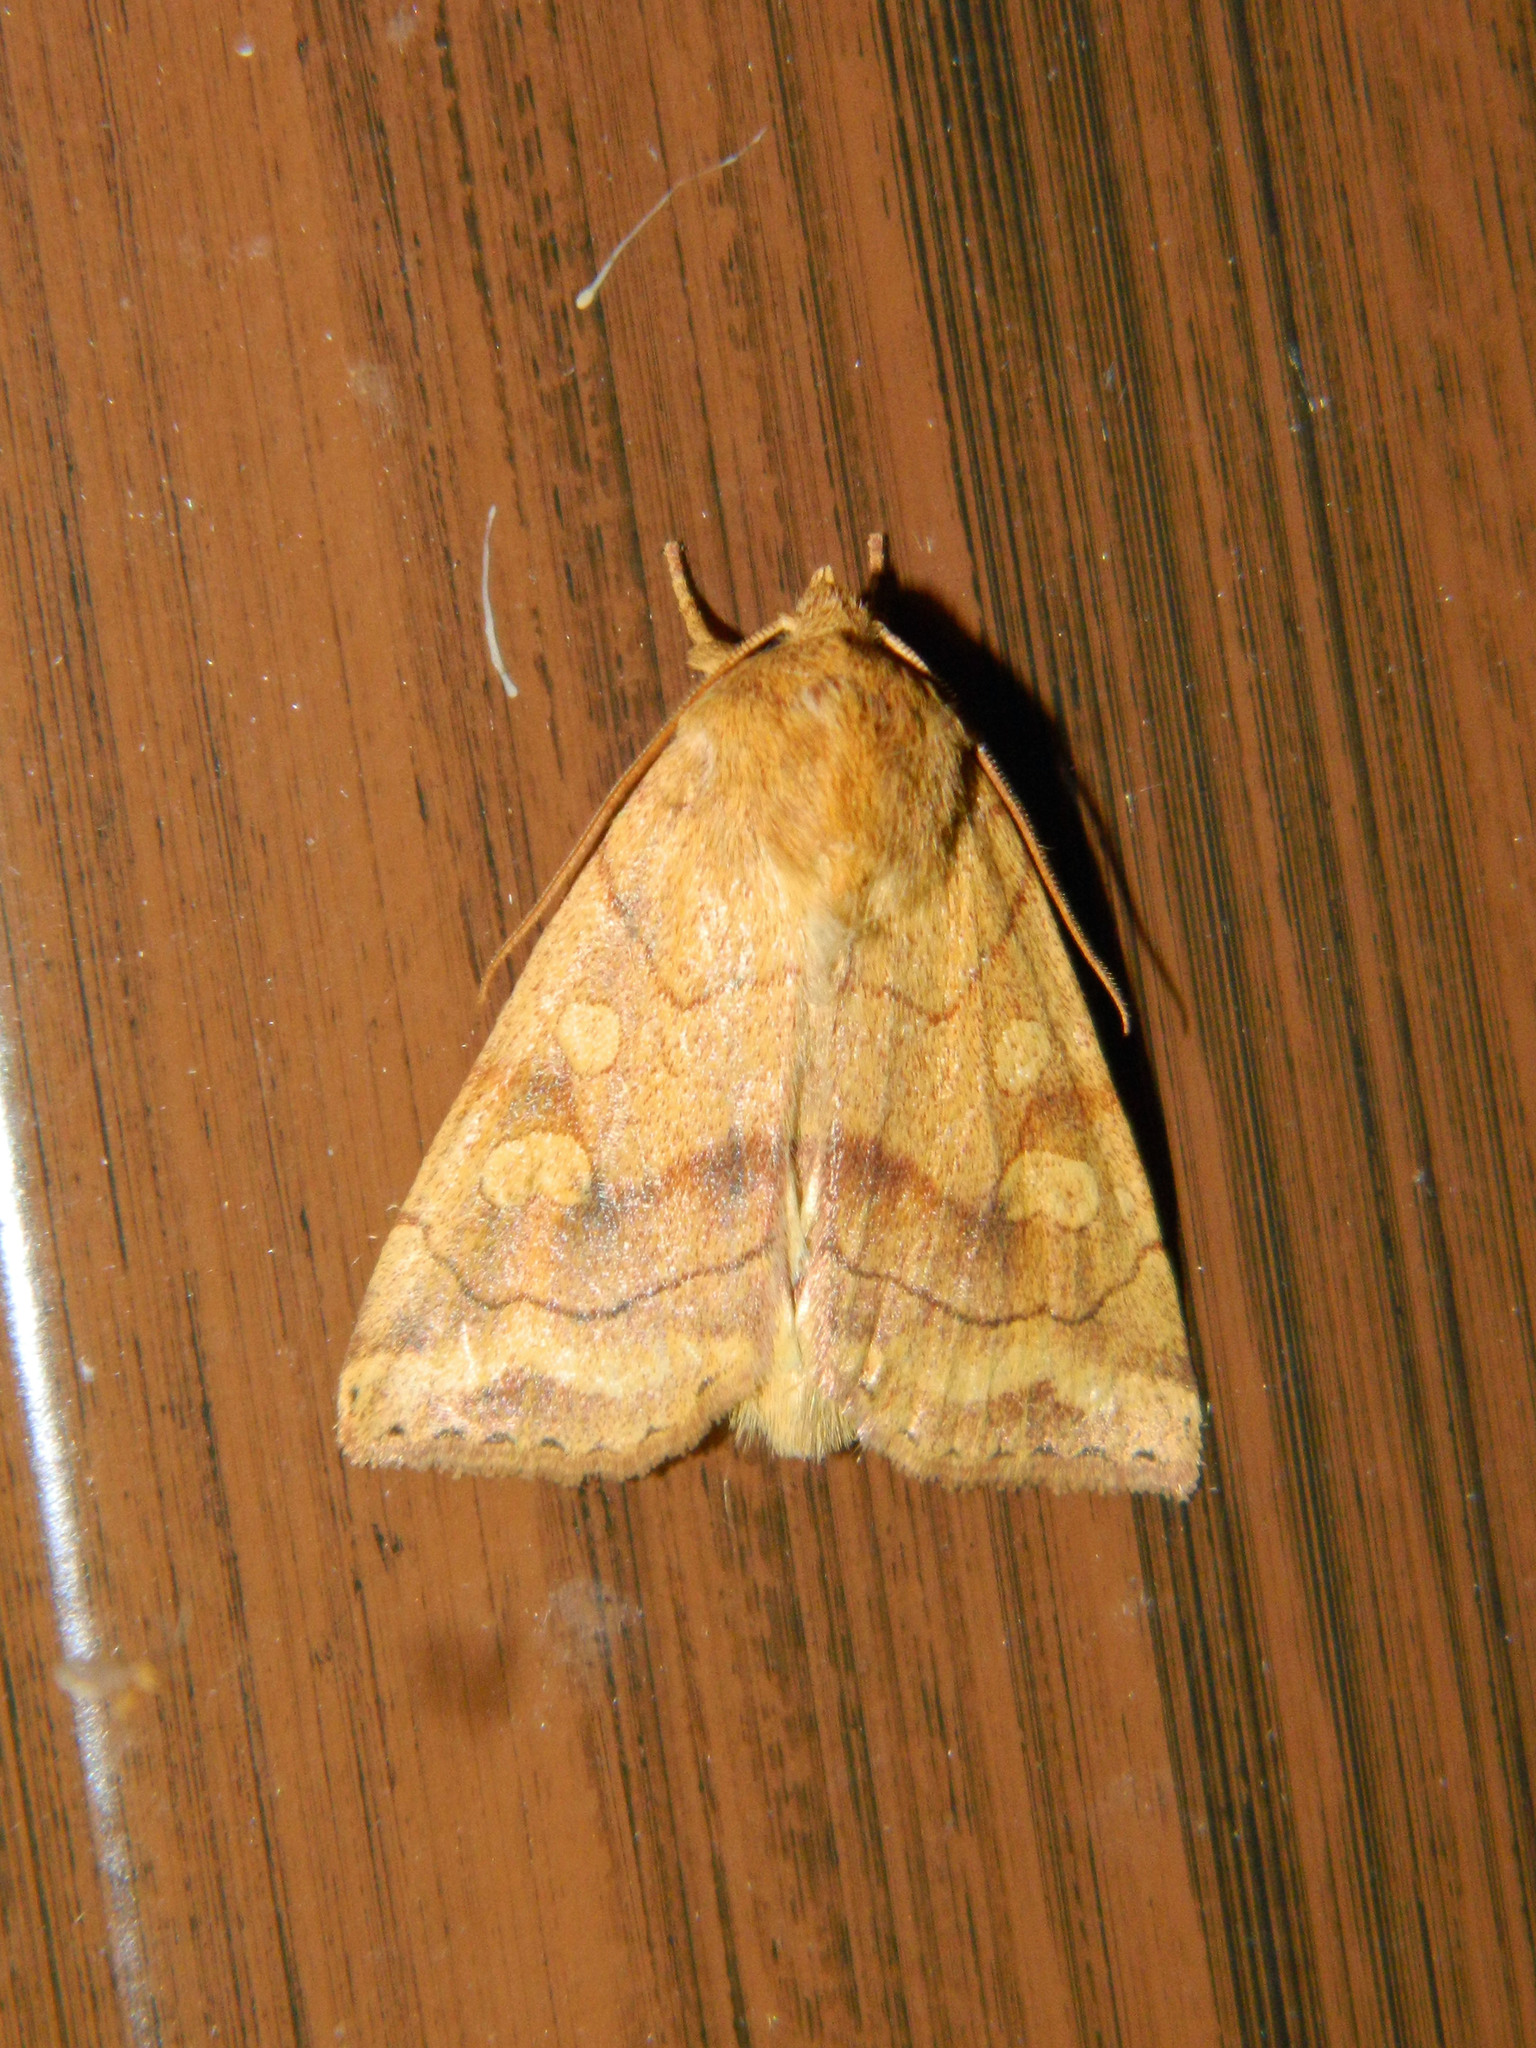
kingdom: Animalia
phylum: Arthropoda
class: Insecta
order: Lepidoptera
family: Noctuidae
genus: Enargia
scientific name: Enargia decolor
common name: Aspen twoleaf tier moth
